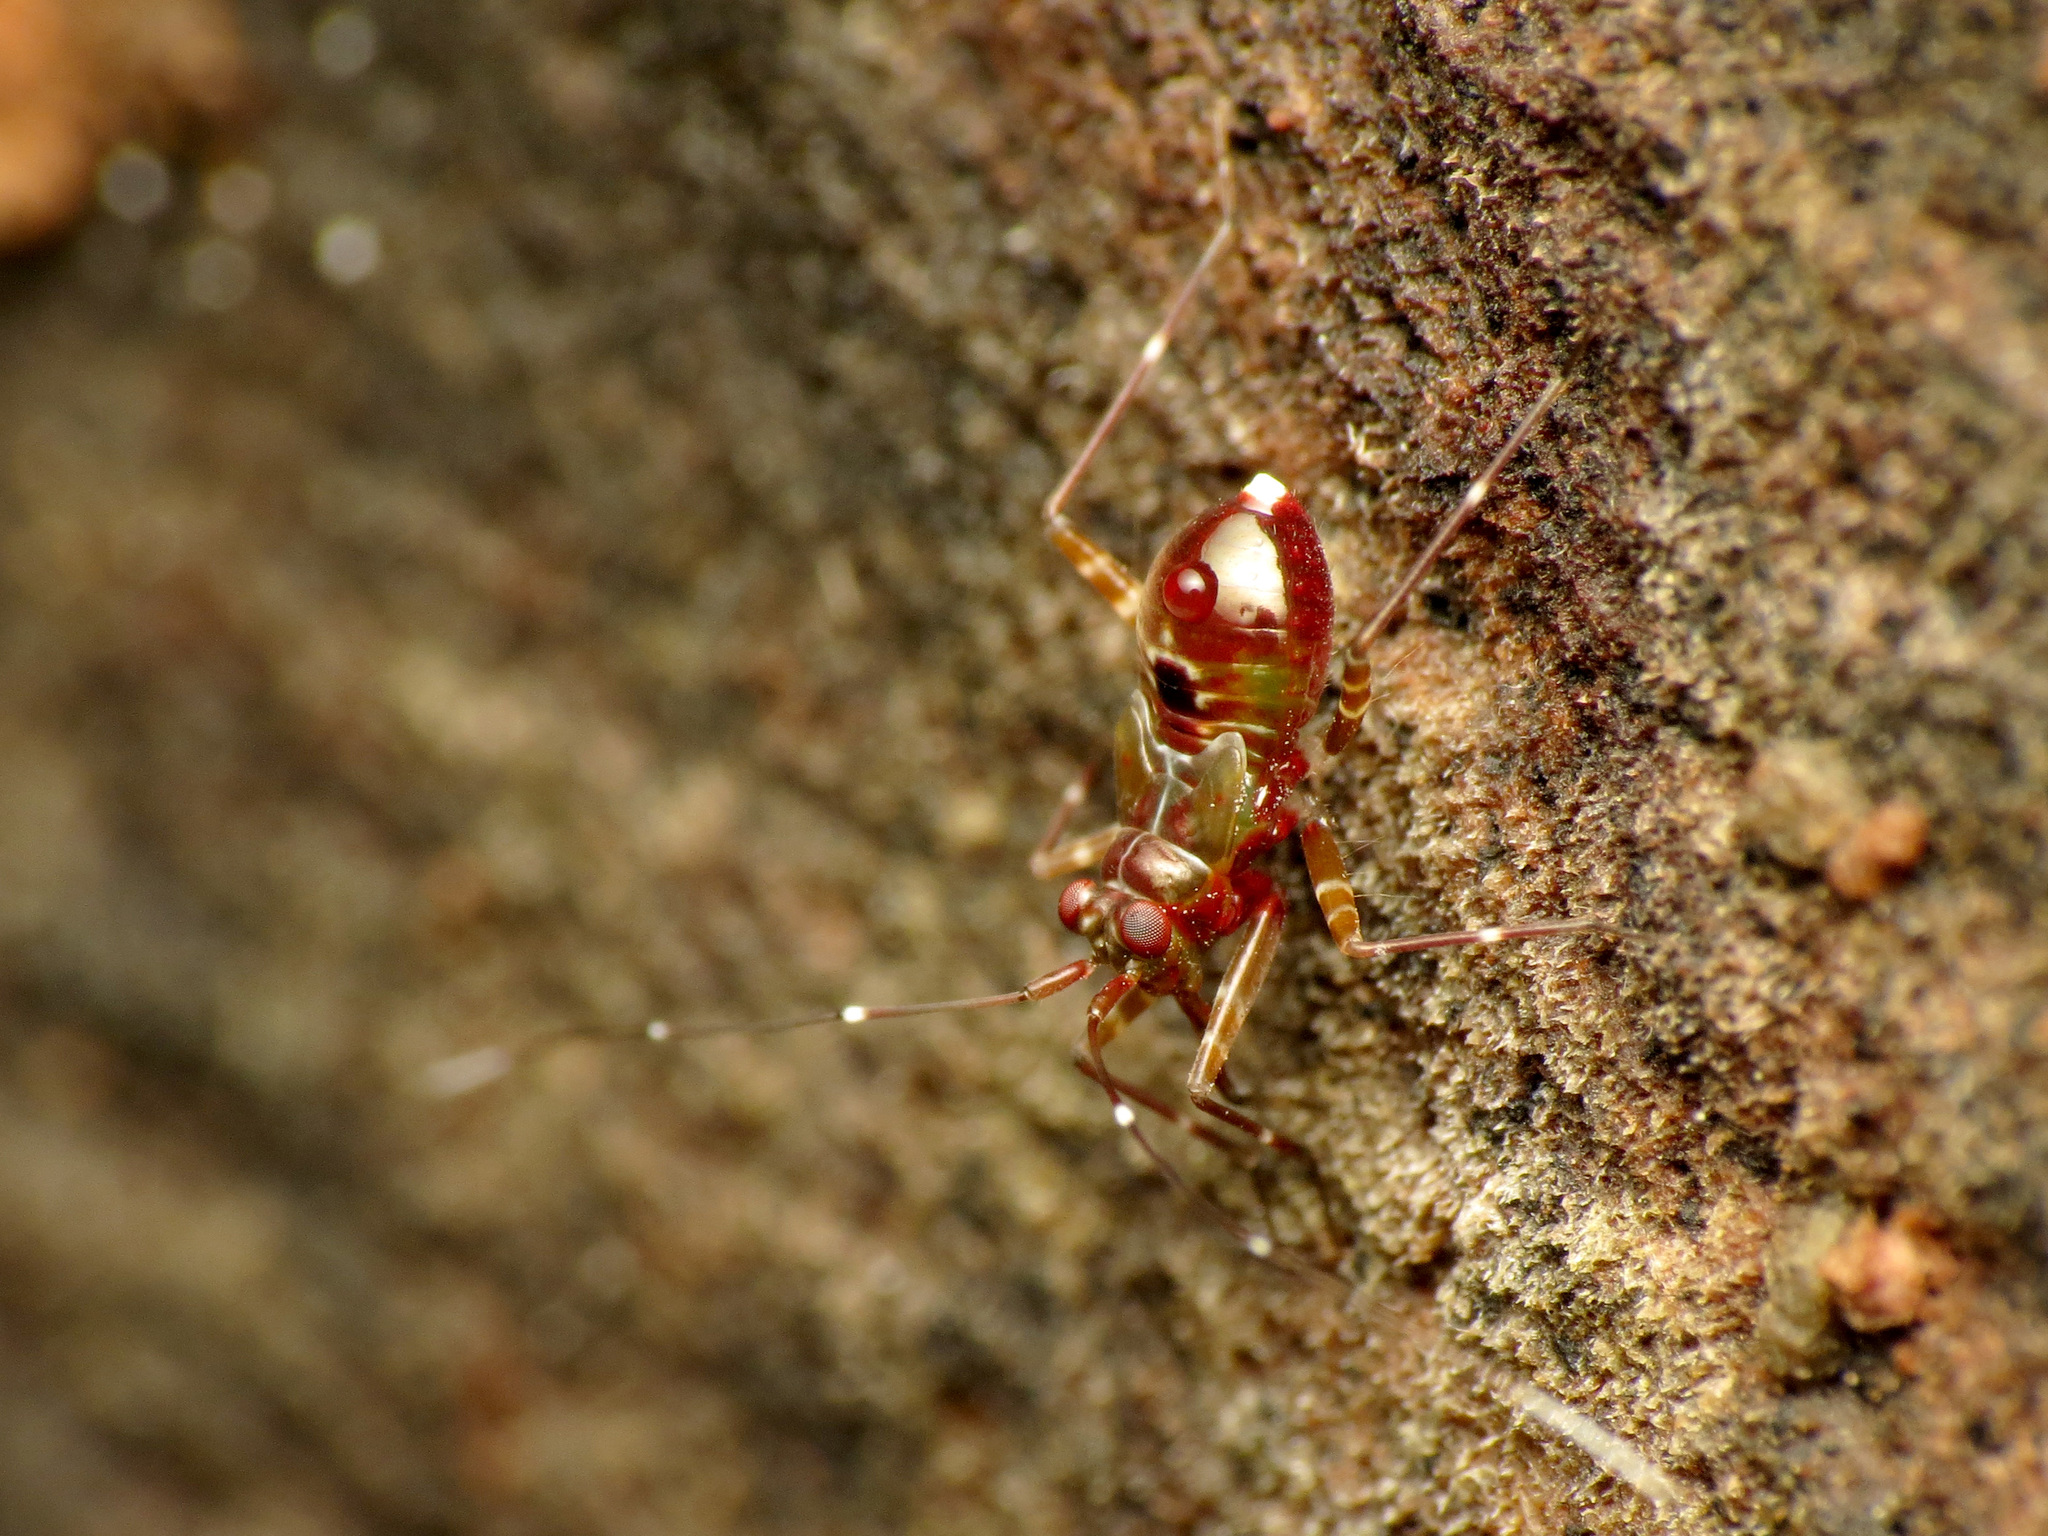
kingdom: Animalia
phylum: Arthropoda
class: Insecta
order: Hemiptera
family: Miridae
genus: Cylapus
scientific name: Cylapus tenuicornis
